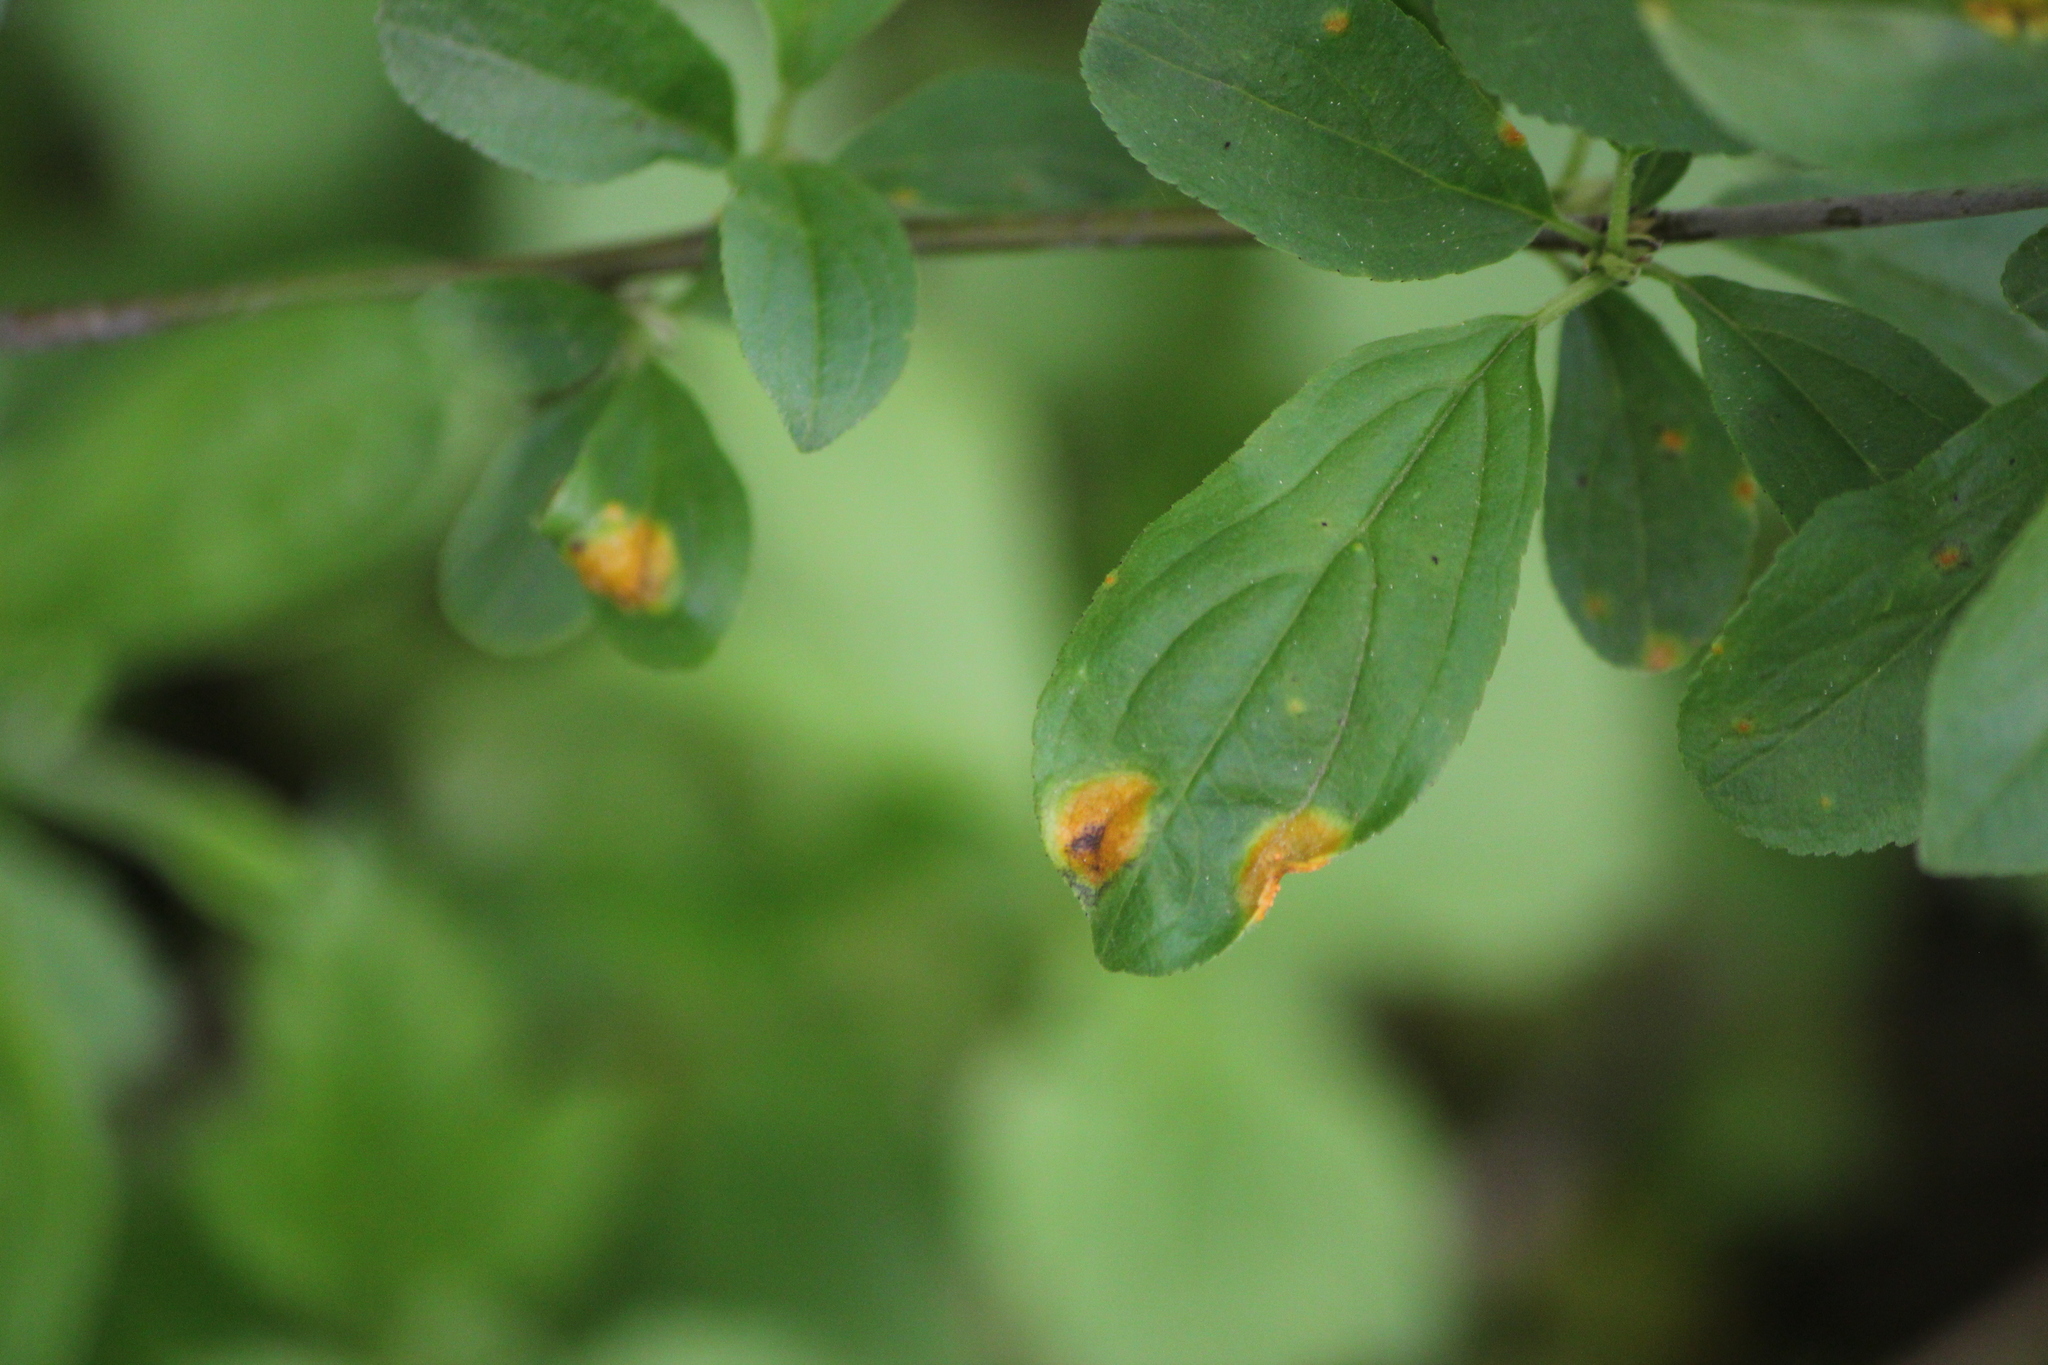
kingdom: Fungi
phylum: Basidiomycota
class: Pucciniomycetes
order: Pucciniales
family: Pucciniaceae
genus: Puccinia
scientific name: Puccinia coronata
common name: Crown rust
